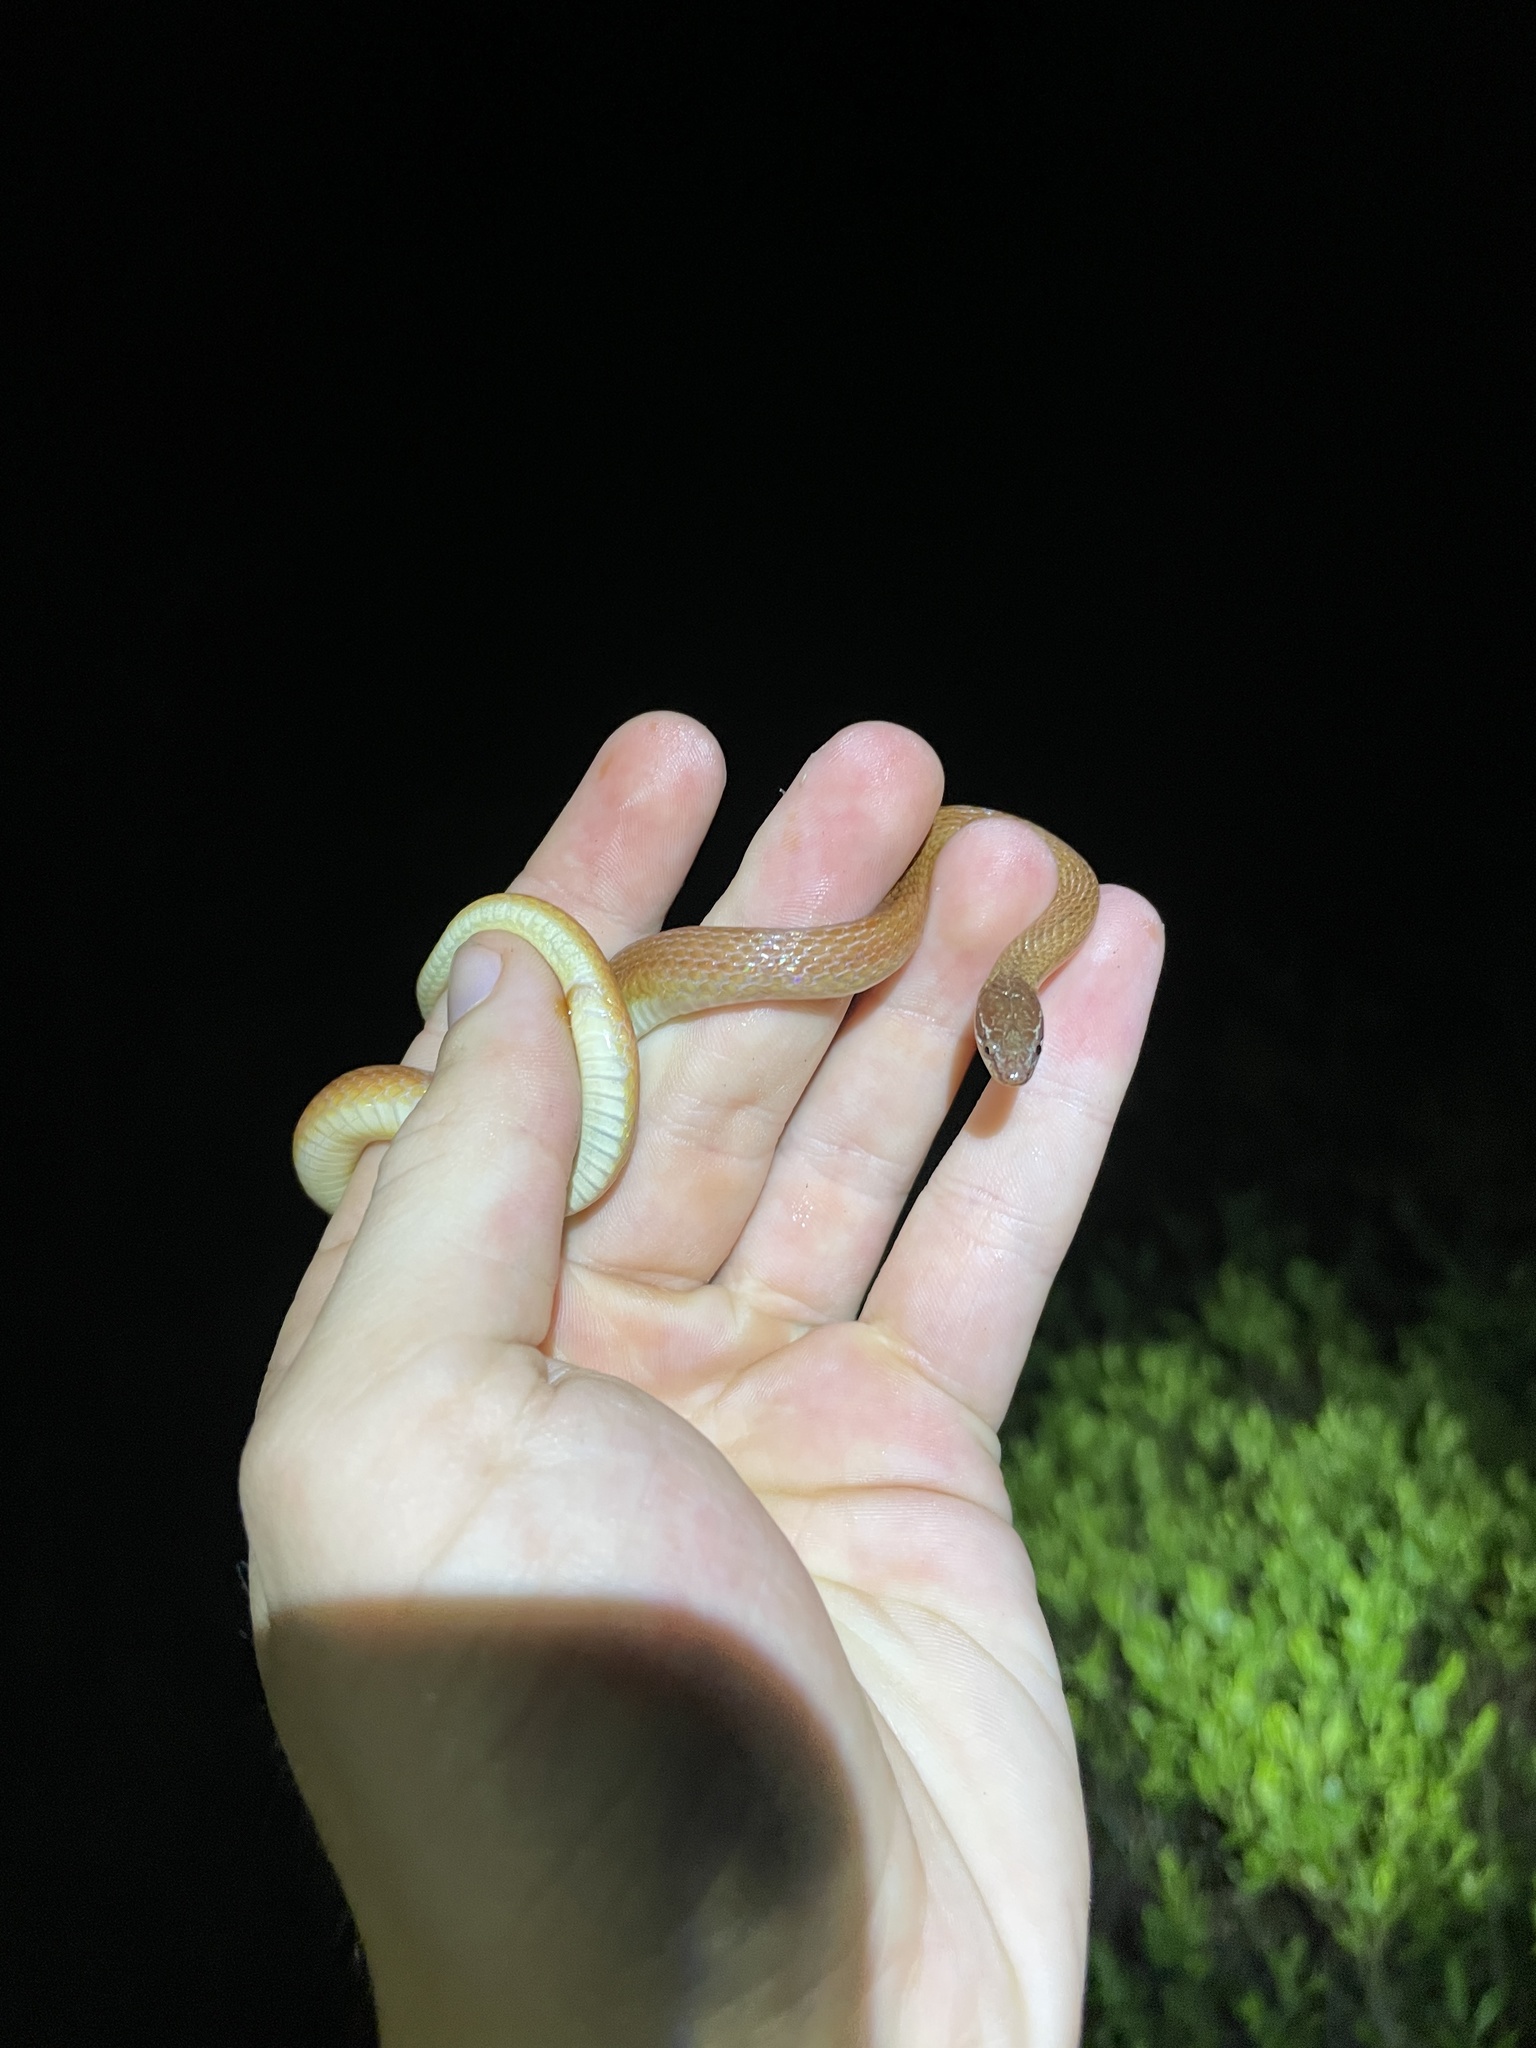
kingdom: Animalia
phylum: Chordata
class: Squamata
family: Colubridae
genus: Rhadinaea
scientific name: Rhadinaea flavilata
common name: Pine woods littersnake
